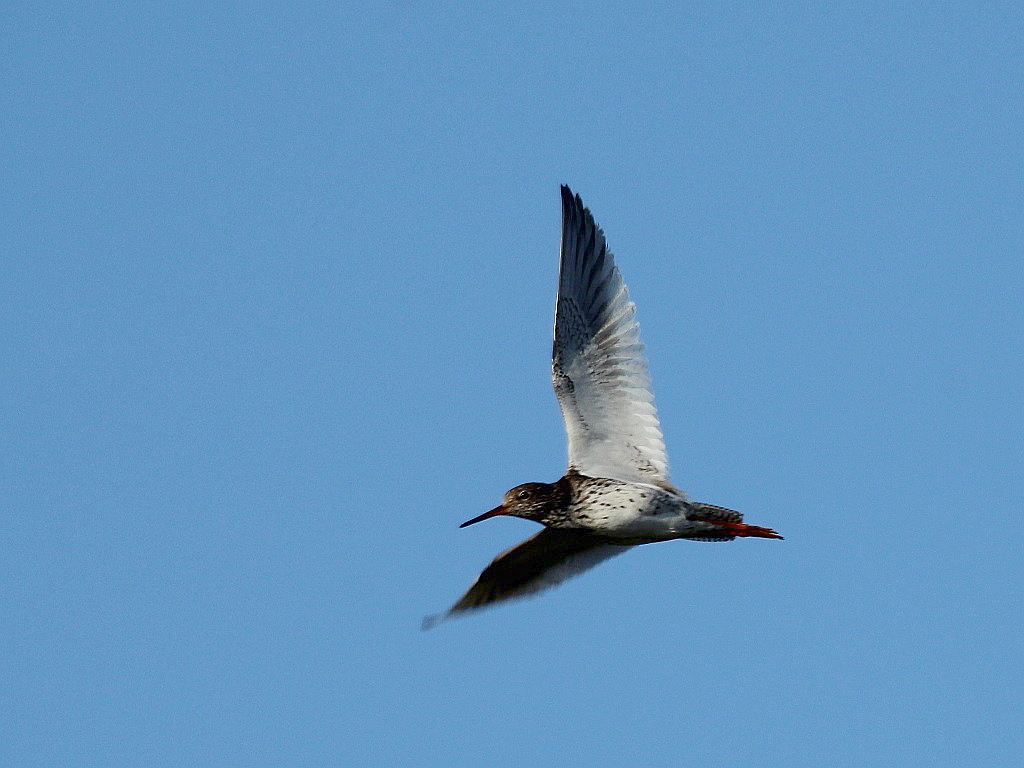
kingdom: Animalia
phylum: Chordata
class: Aves
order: Charadriiformes
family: Scolopacidae
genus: Tringa
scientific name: Tringa totanus
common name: Common redshank
